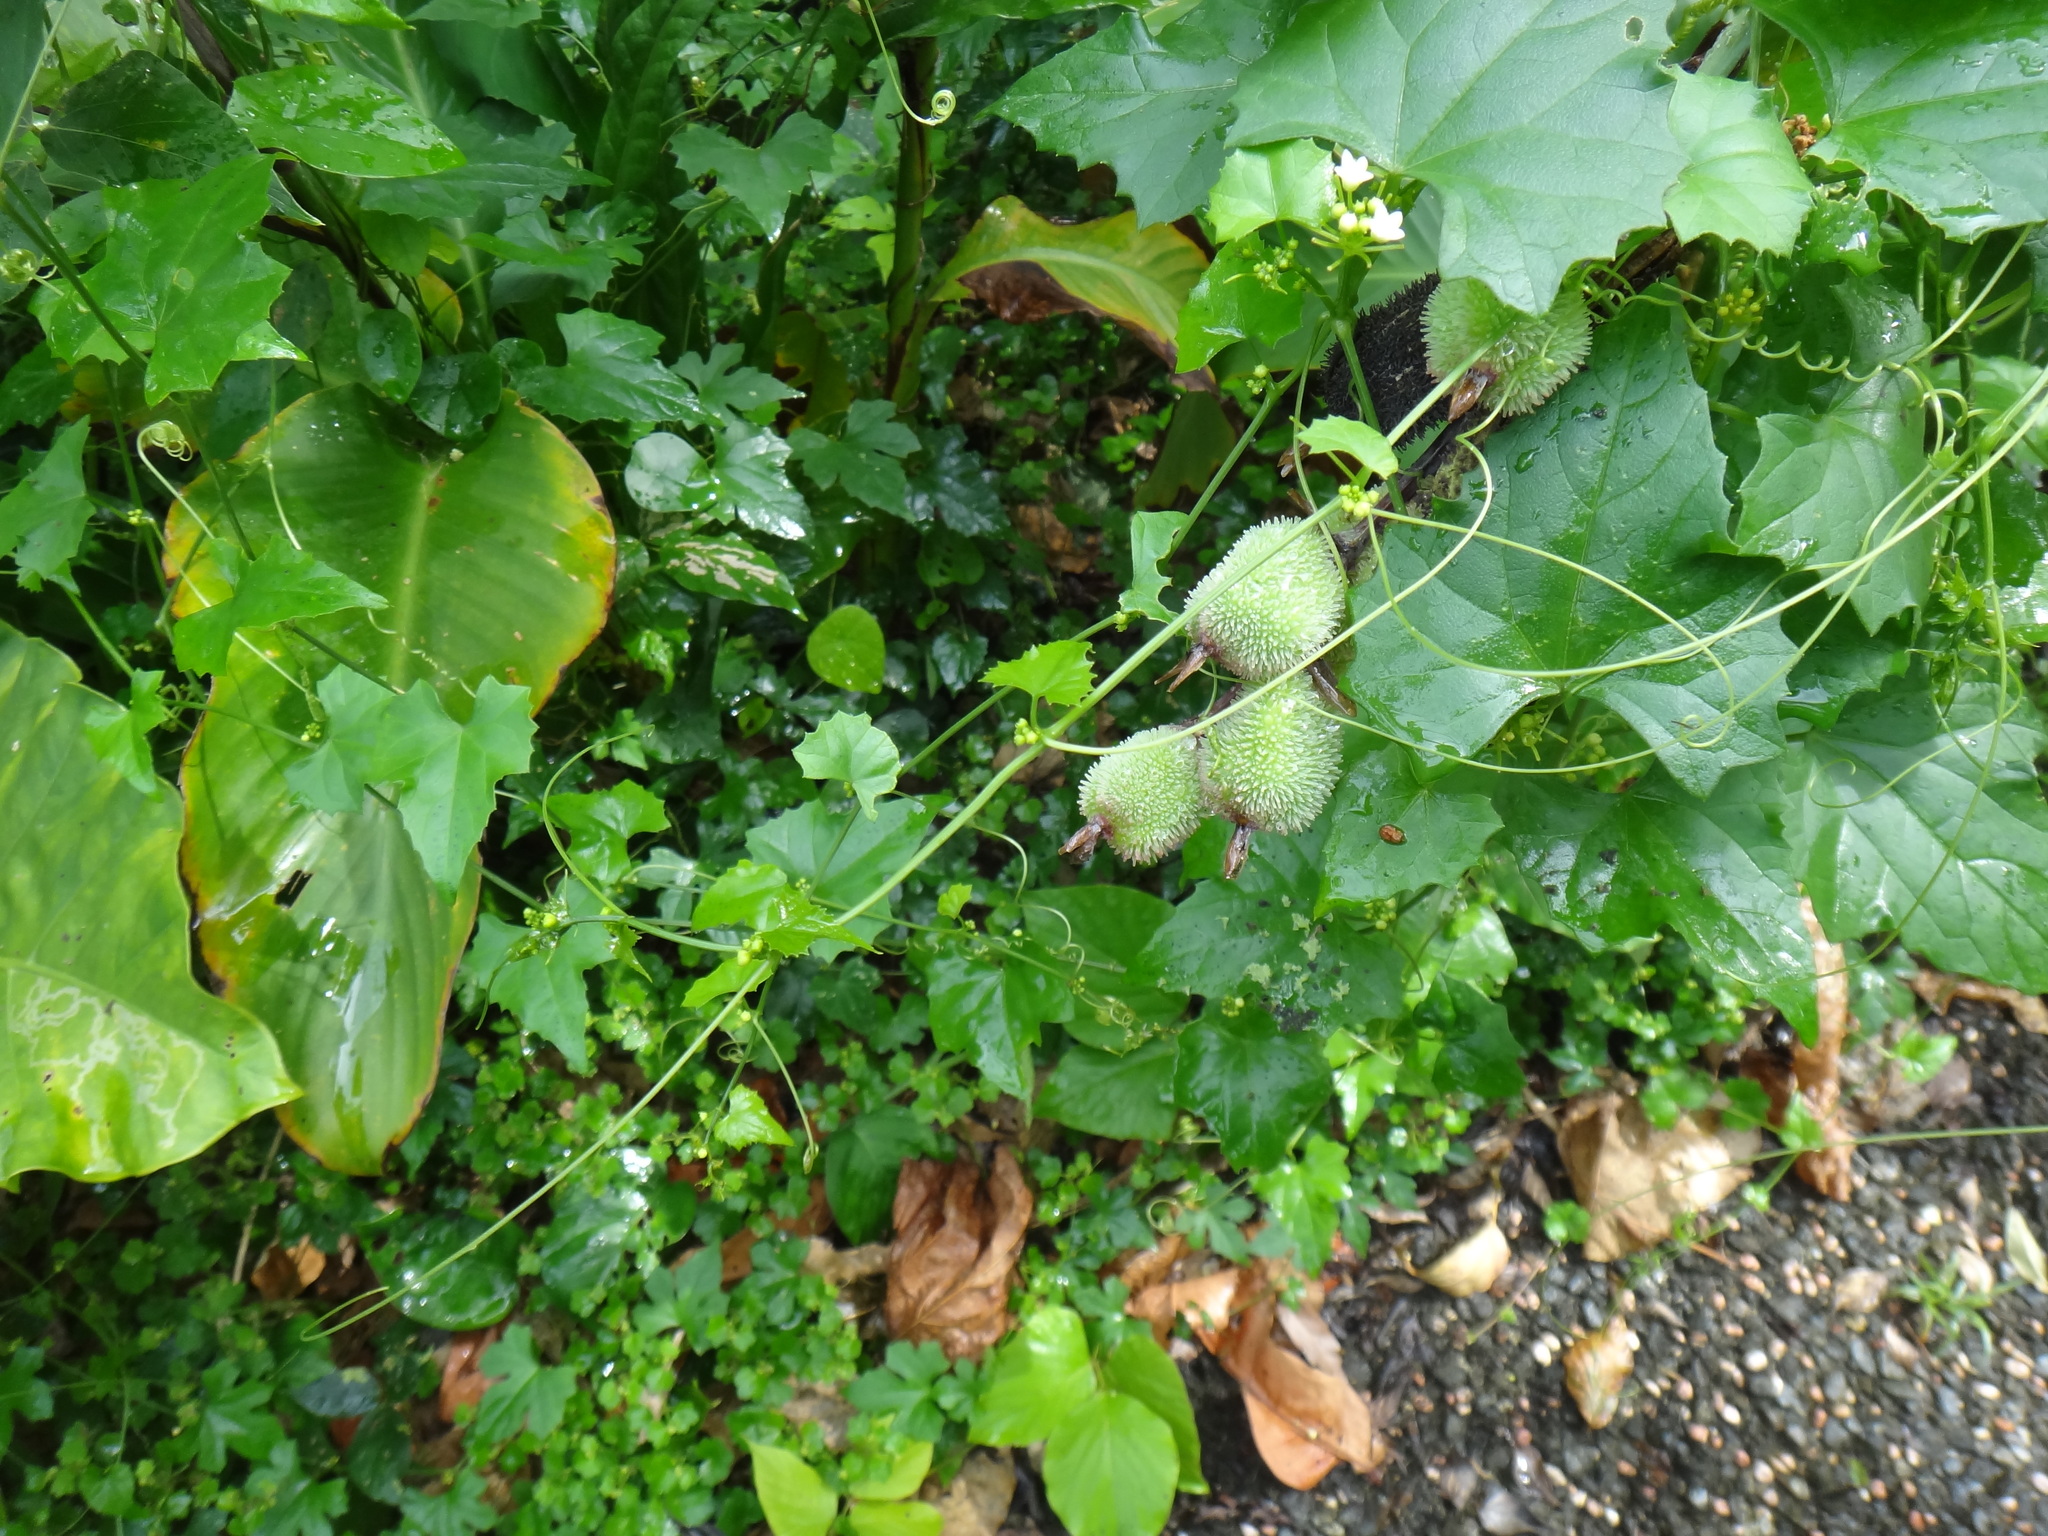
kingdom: Plantae
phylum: Tracheophyta
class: Magnoliopsida
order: Cucurbitales
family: Cucurbitaceae
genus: Zehneria
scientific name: Zehneria guamensis
